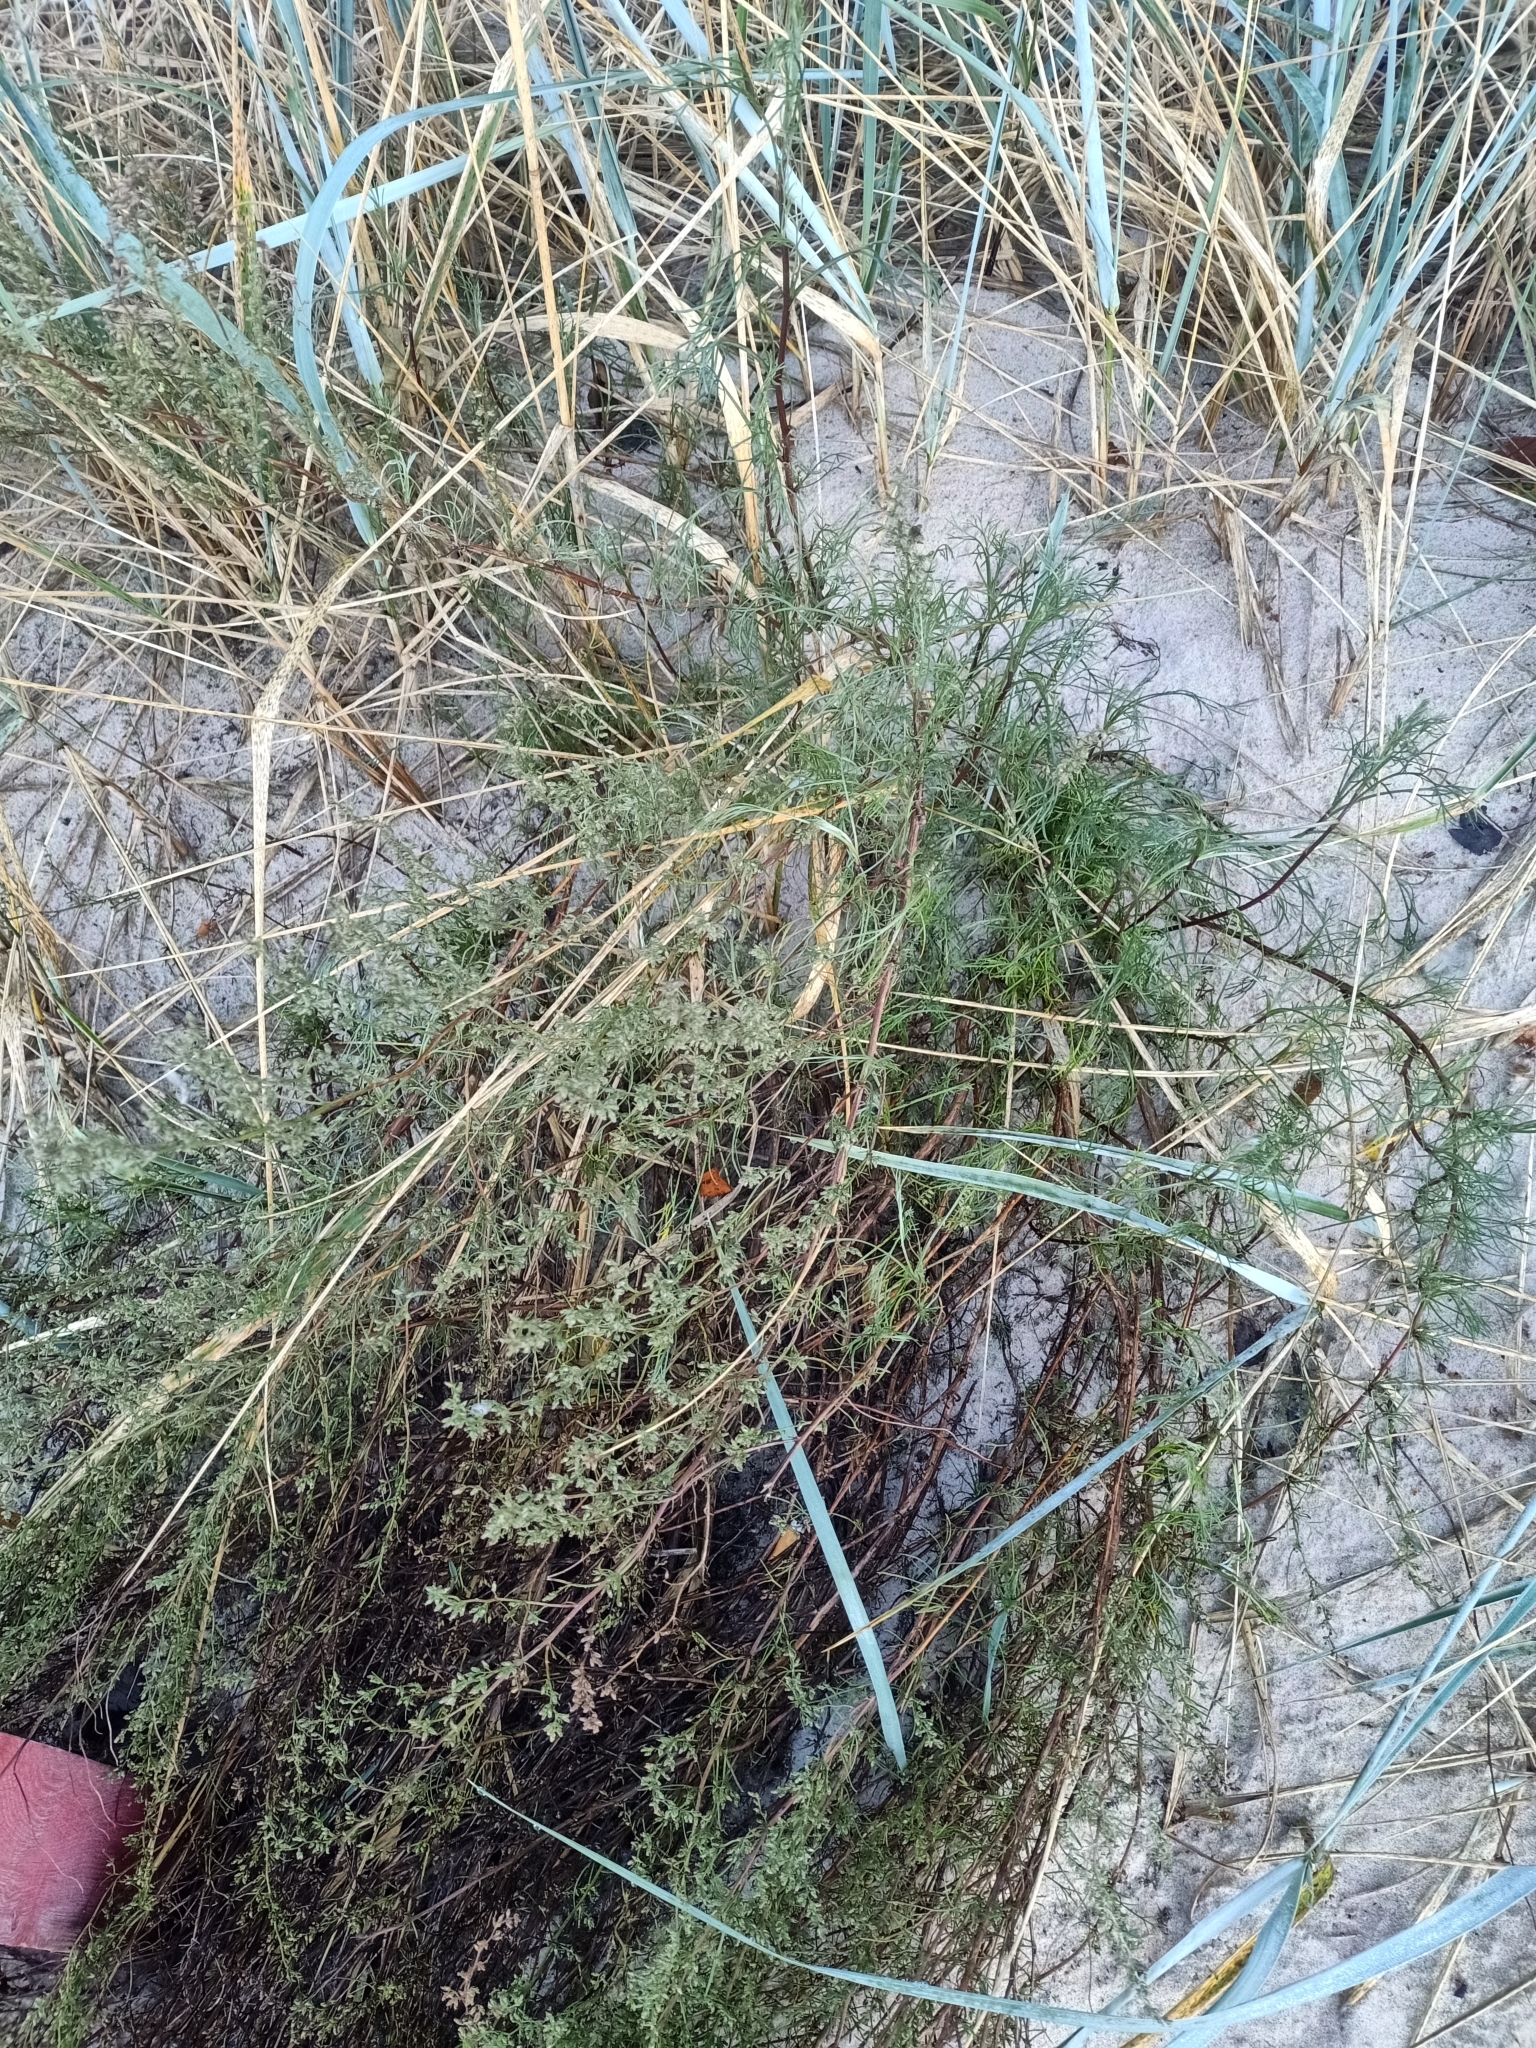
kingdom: Plantae
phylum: Tracheophyta
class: Magnoliopsida
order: Asterales
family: Asteraceae
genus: Artemisia
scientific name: Artemisia campestris
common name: Field wormwood
